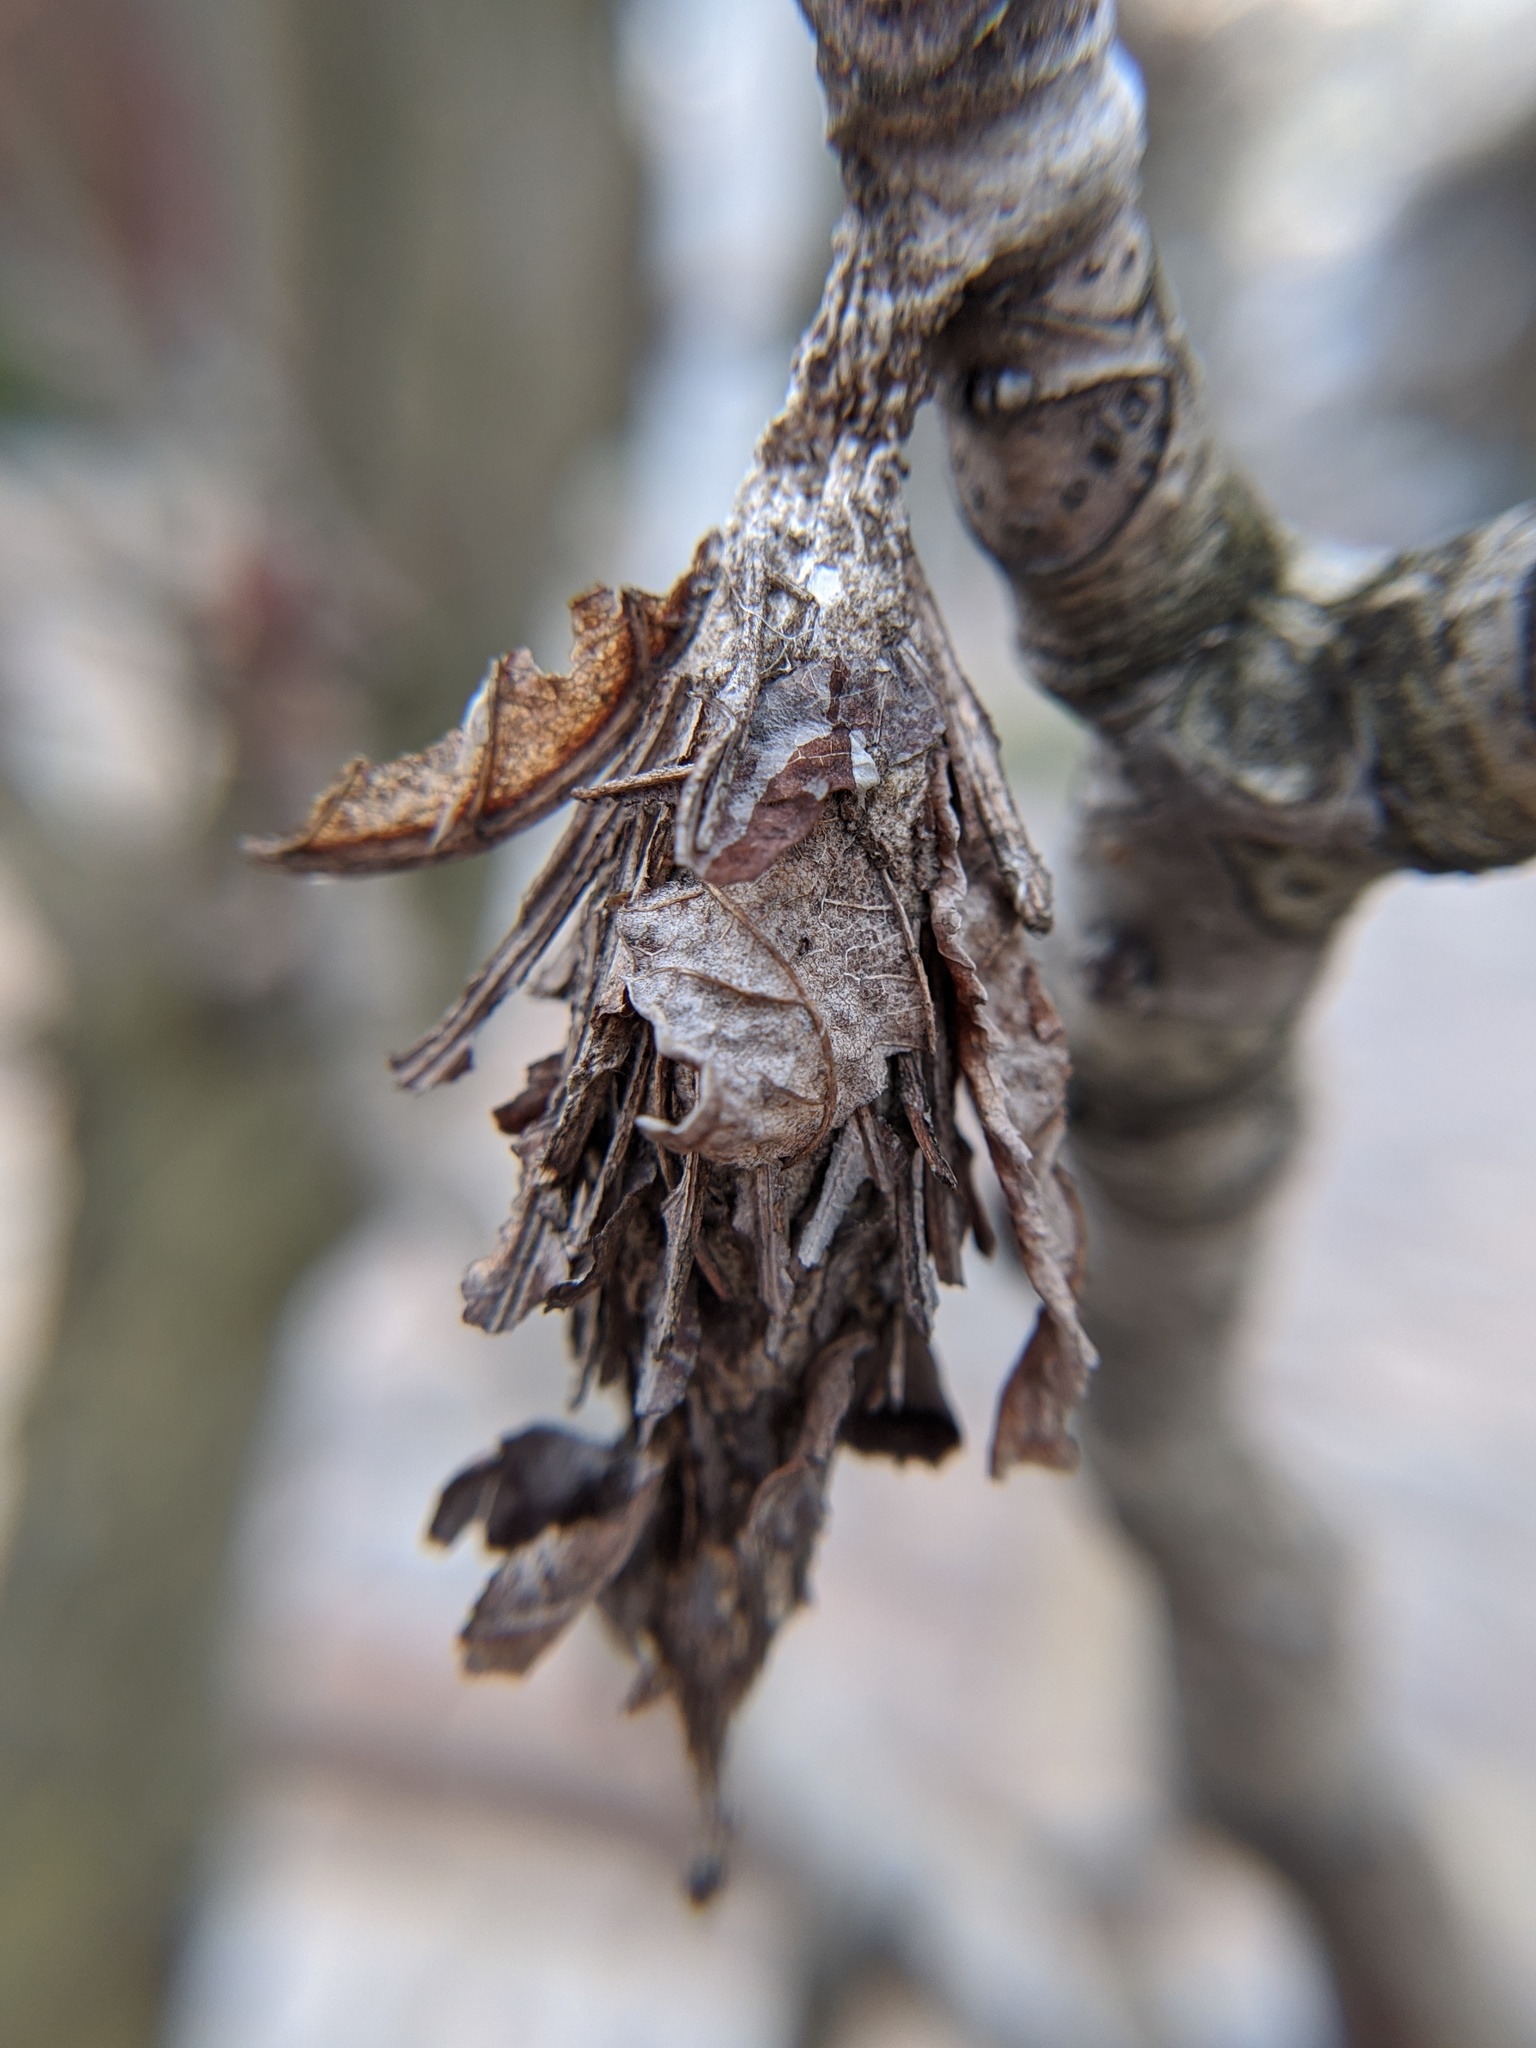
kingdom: Animalia
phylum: Arthropoda
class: Insecta
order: Lepidoptera
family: Psychidae
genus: Thyridopteryx
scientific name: Thyridopteryx ephemeraeformis
